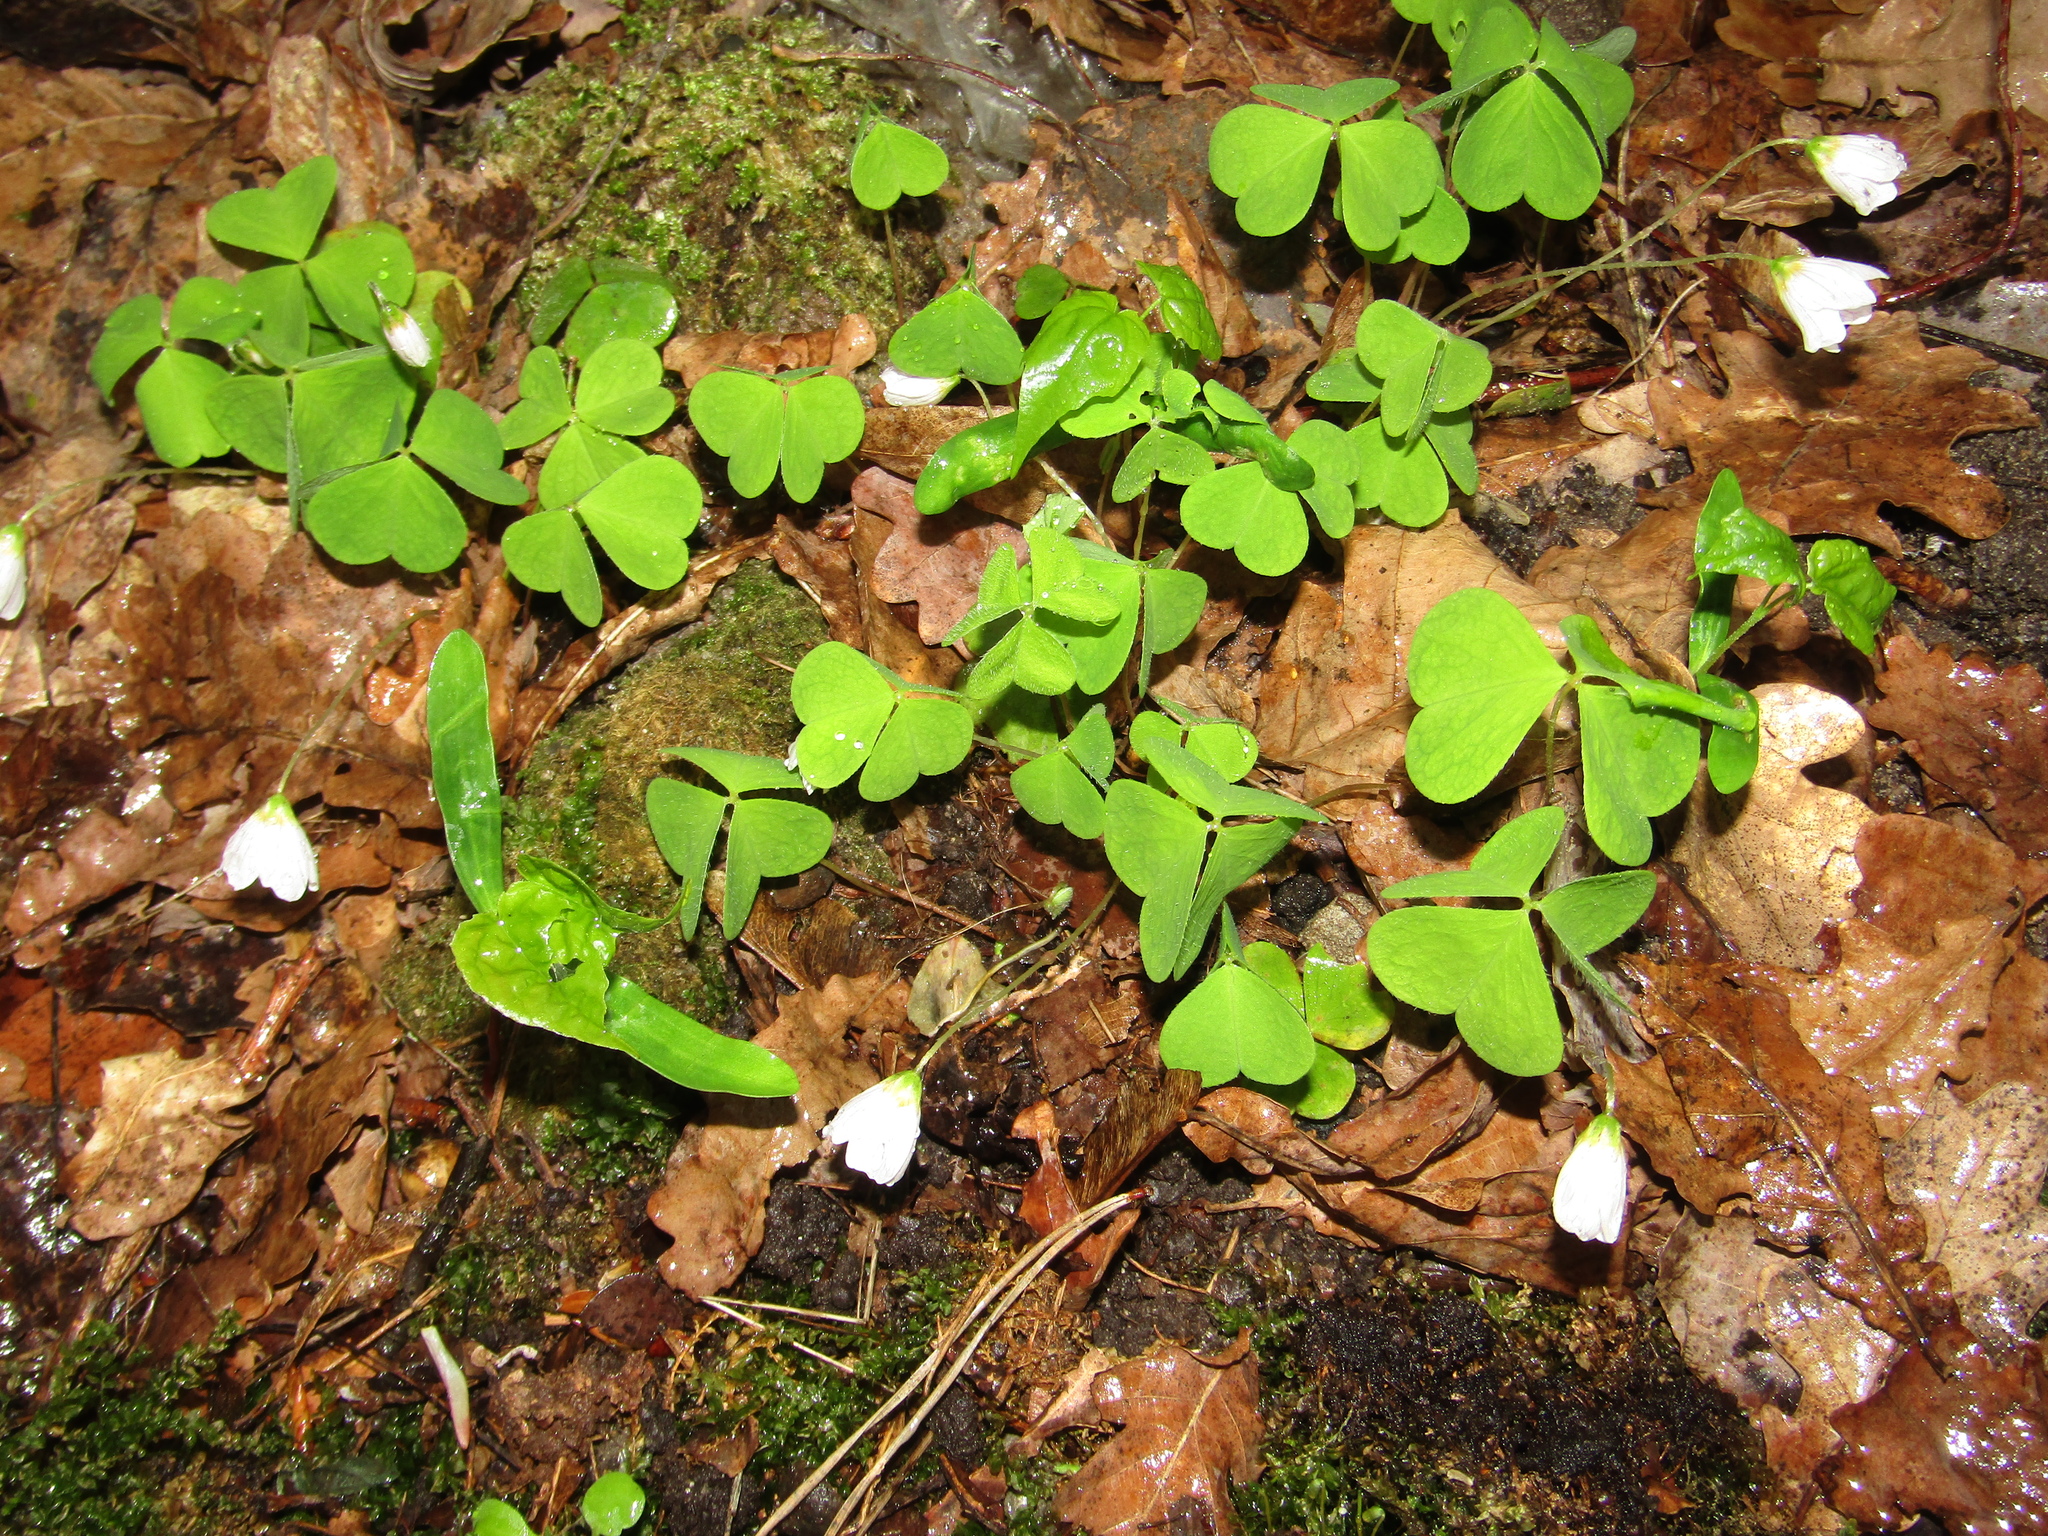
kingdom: Plantae
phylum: Tracheophyta
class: Magnoliopsida
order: Oxalidales
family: Oxalidaceae
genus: Oxalis
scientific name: Oxalis acetosella
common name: Wood-sorrel
